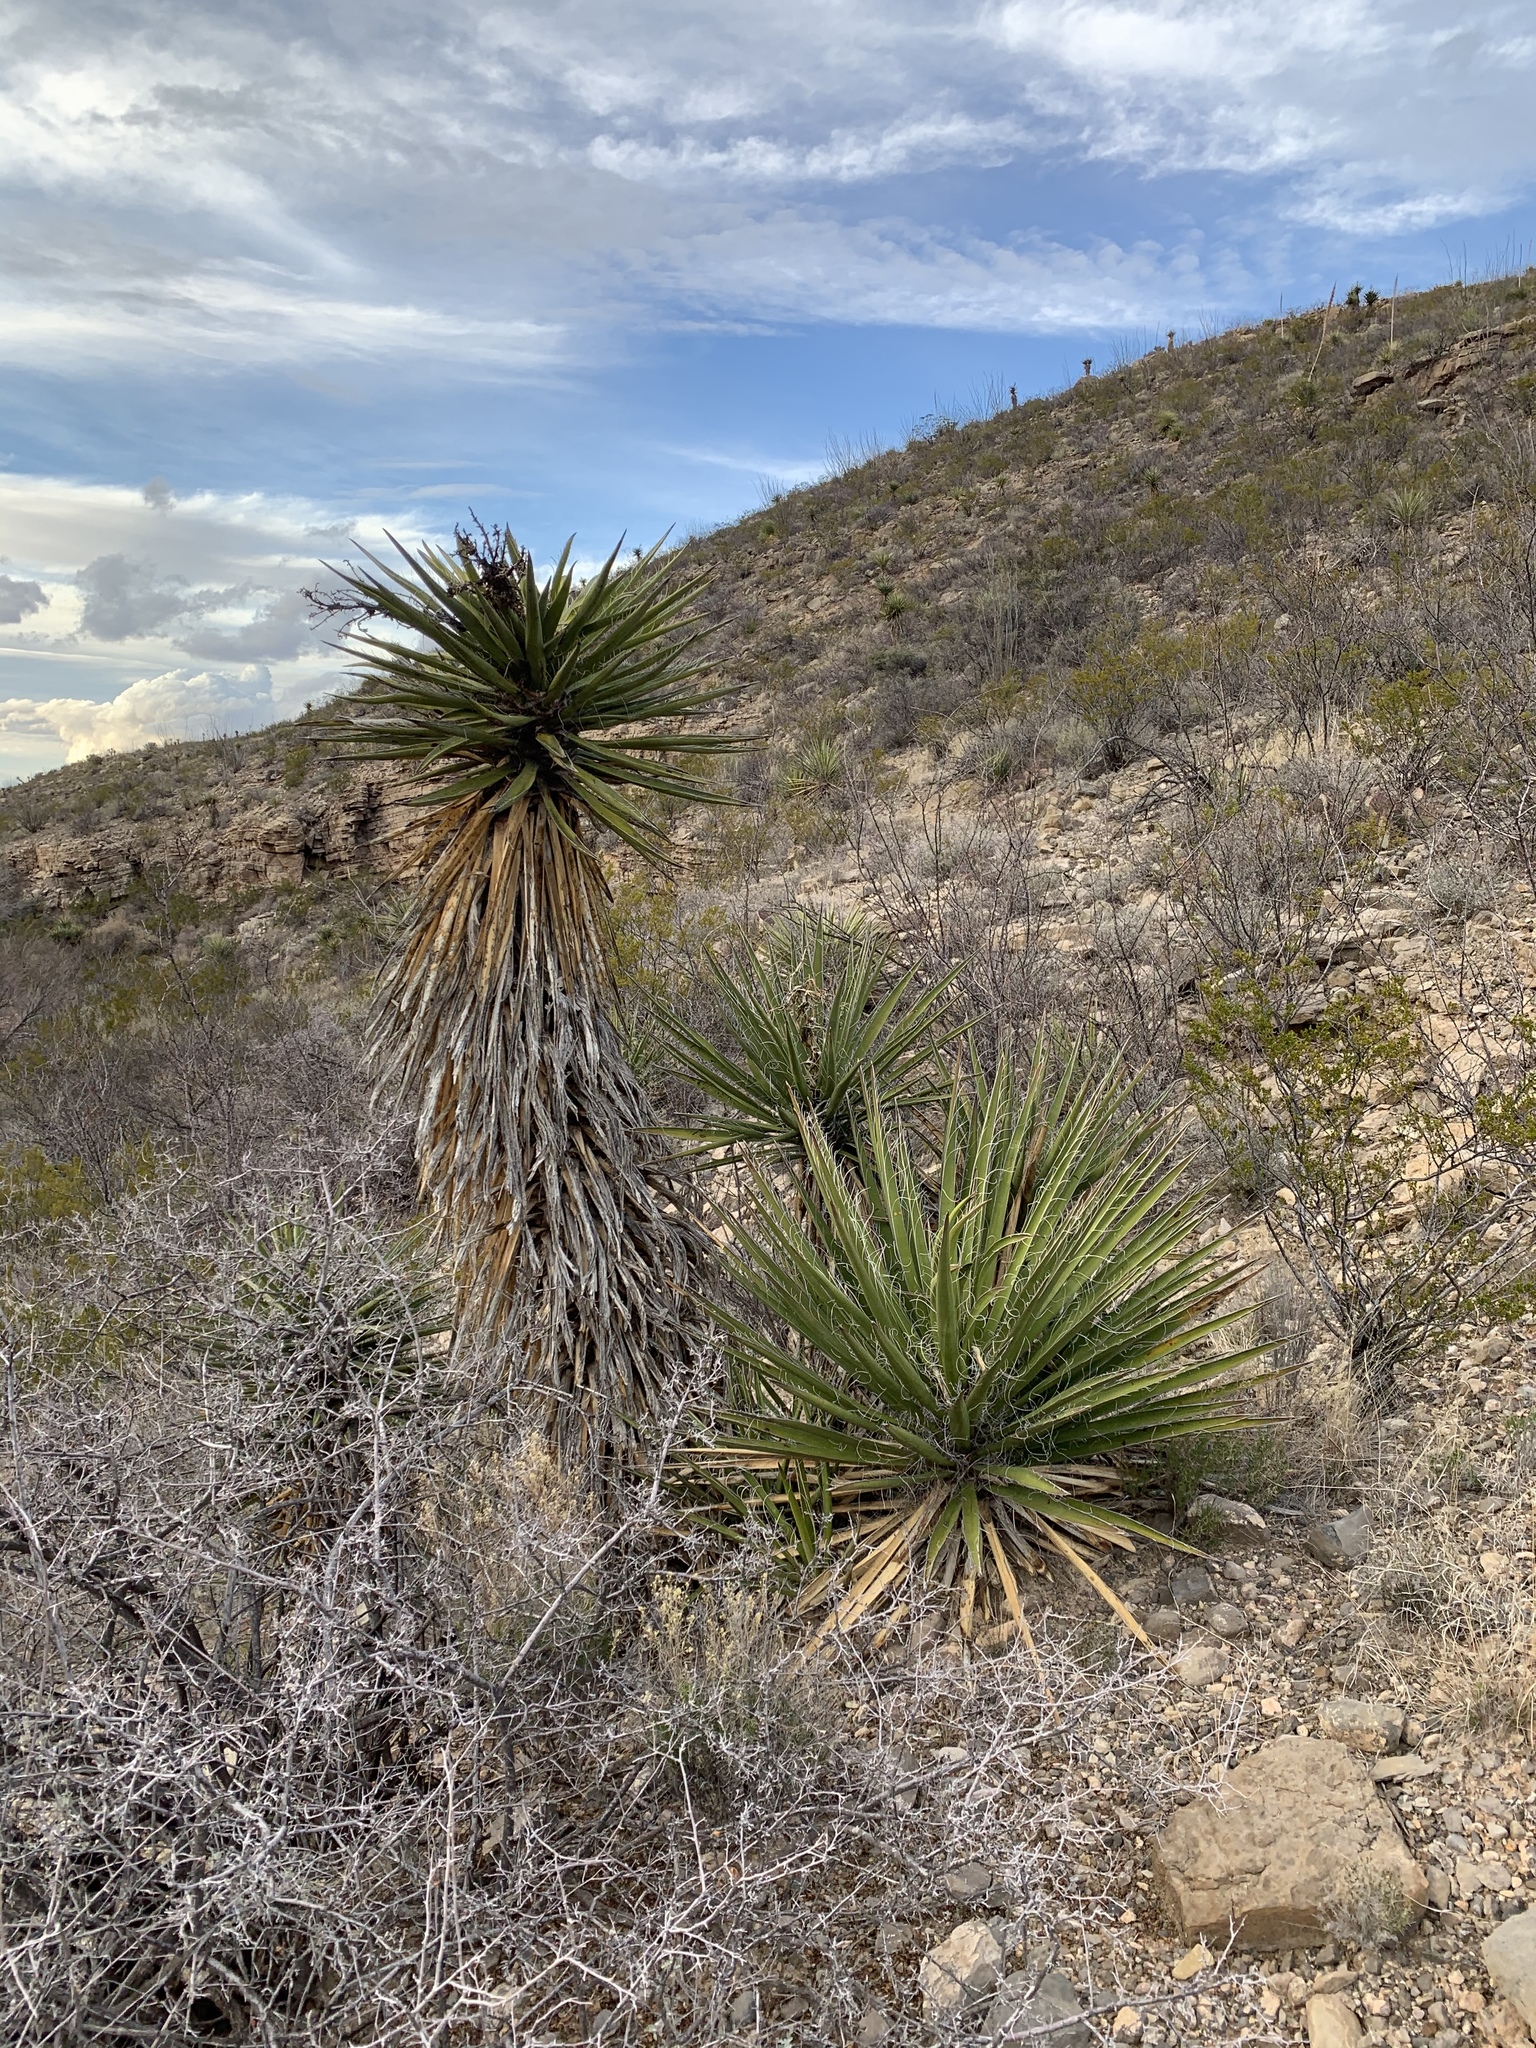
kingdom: Plantae
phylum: Tracheophyta
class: Liliopsida
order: Asparagales
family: Asparagaceae
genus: Yucca
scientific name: Yucca treculiana
